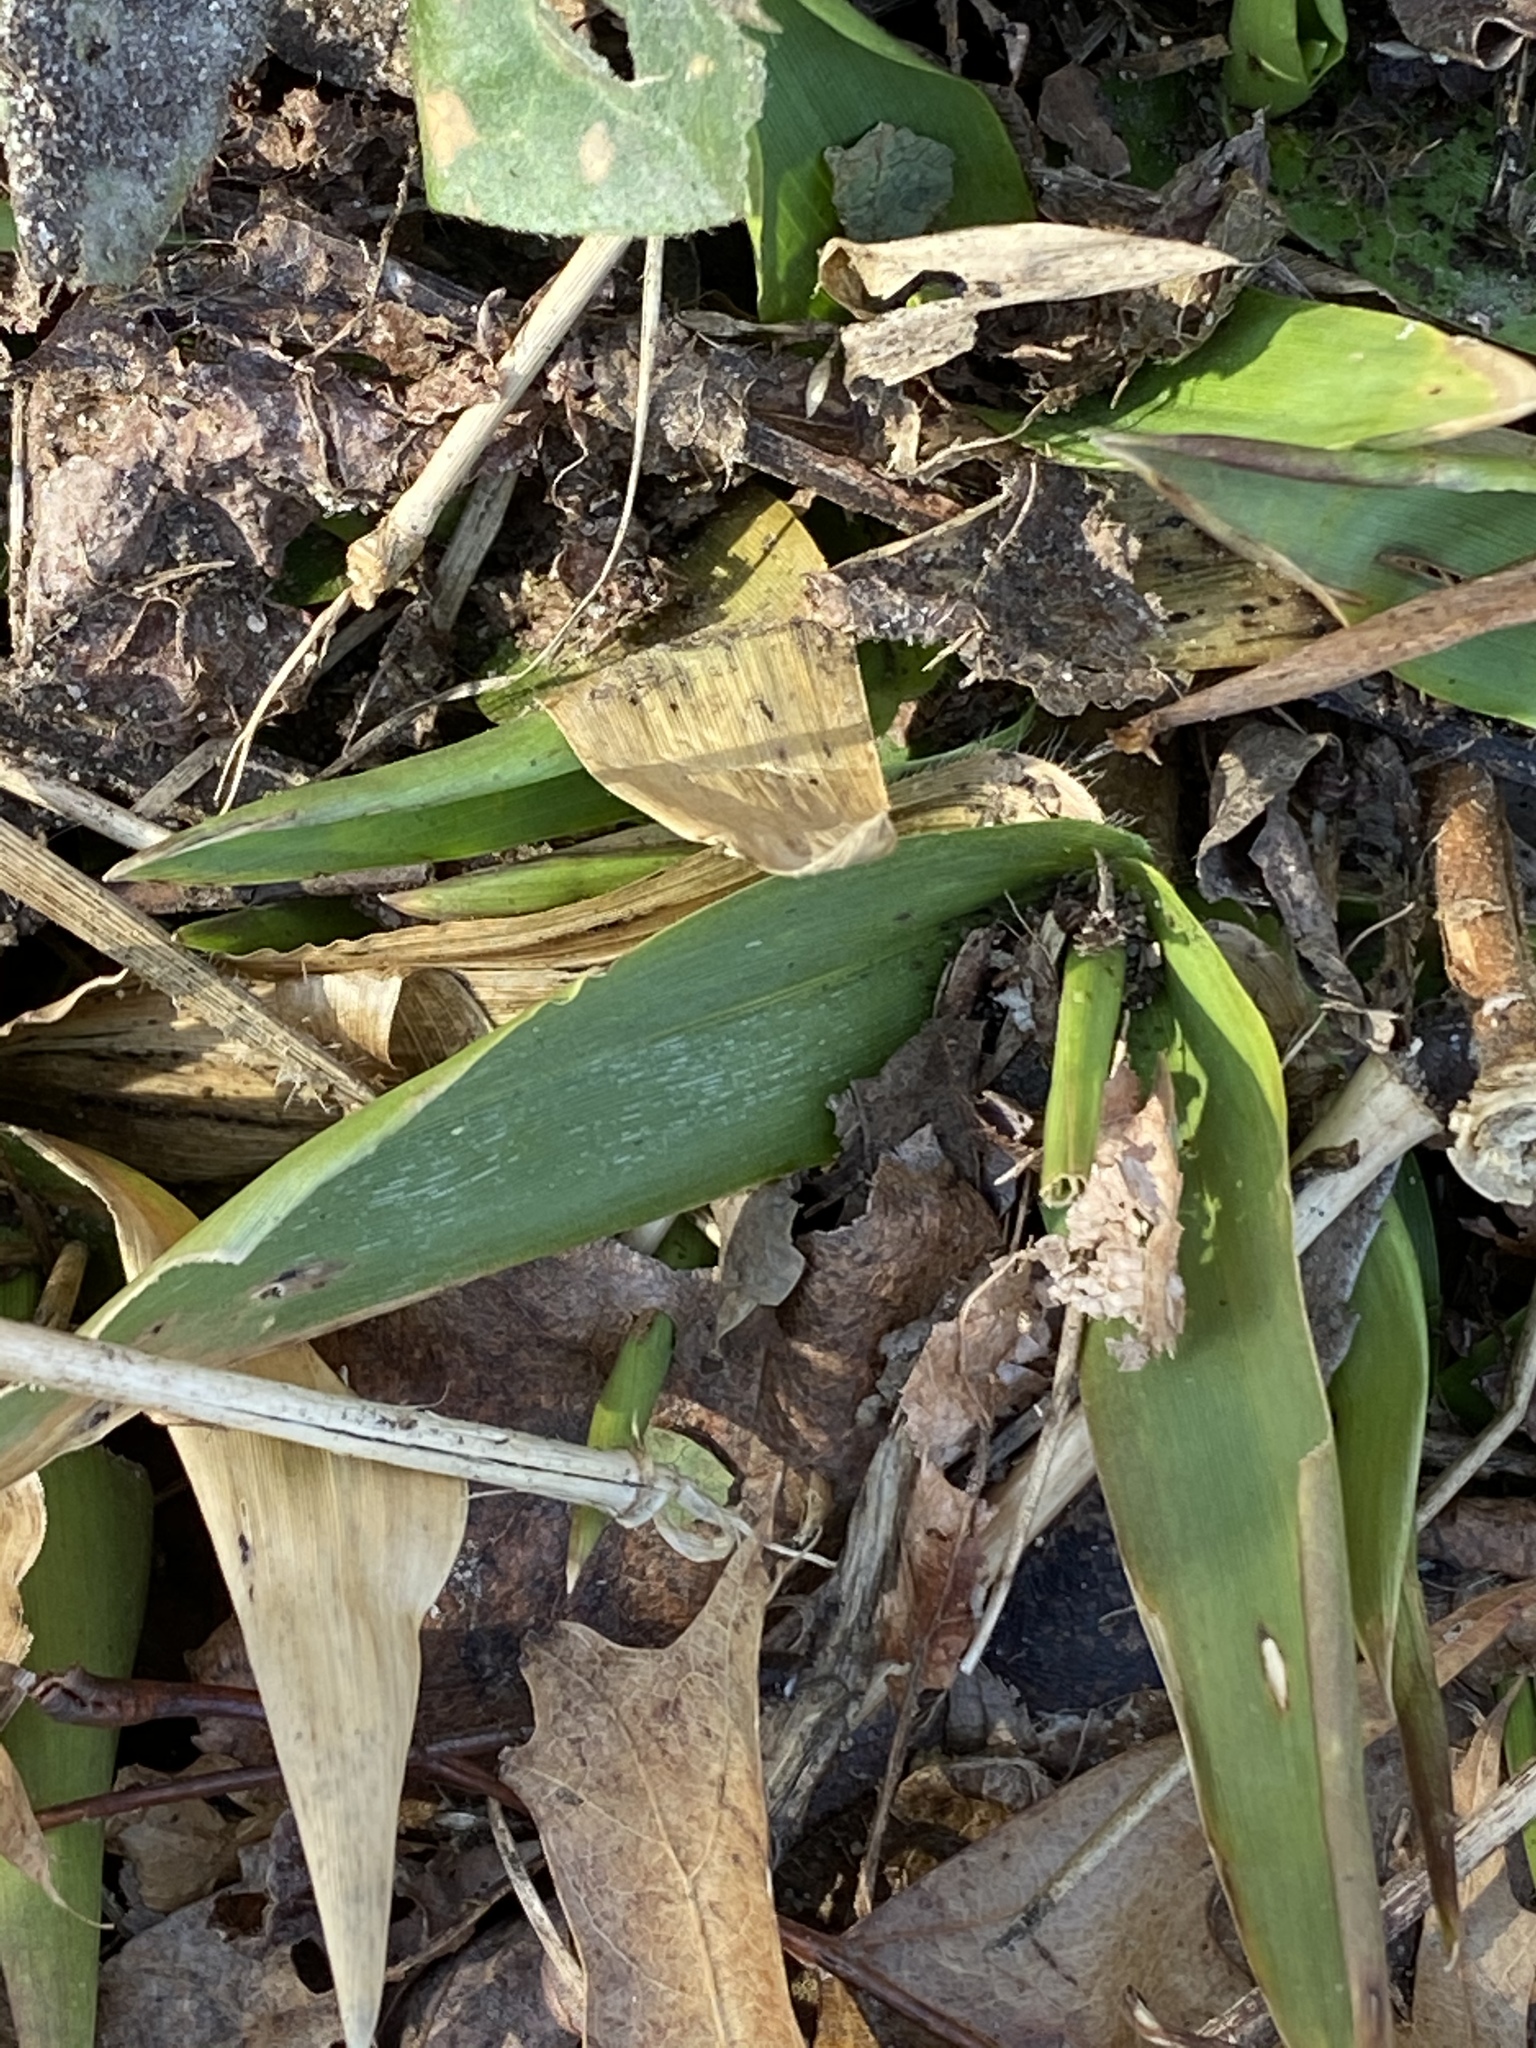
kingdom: Plantae
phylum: Tracheophyta
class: Liliopsida
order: Poales
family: Poaceae
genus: Dichanthelium
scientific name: Dichanthelium clandestinum
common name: Deer-tongue grass
